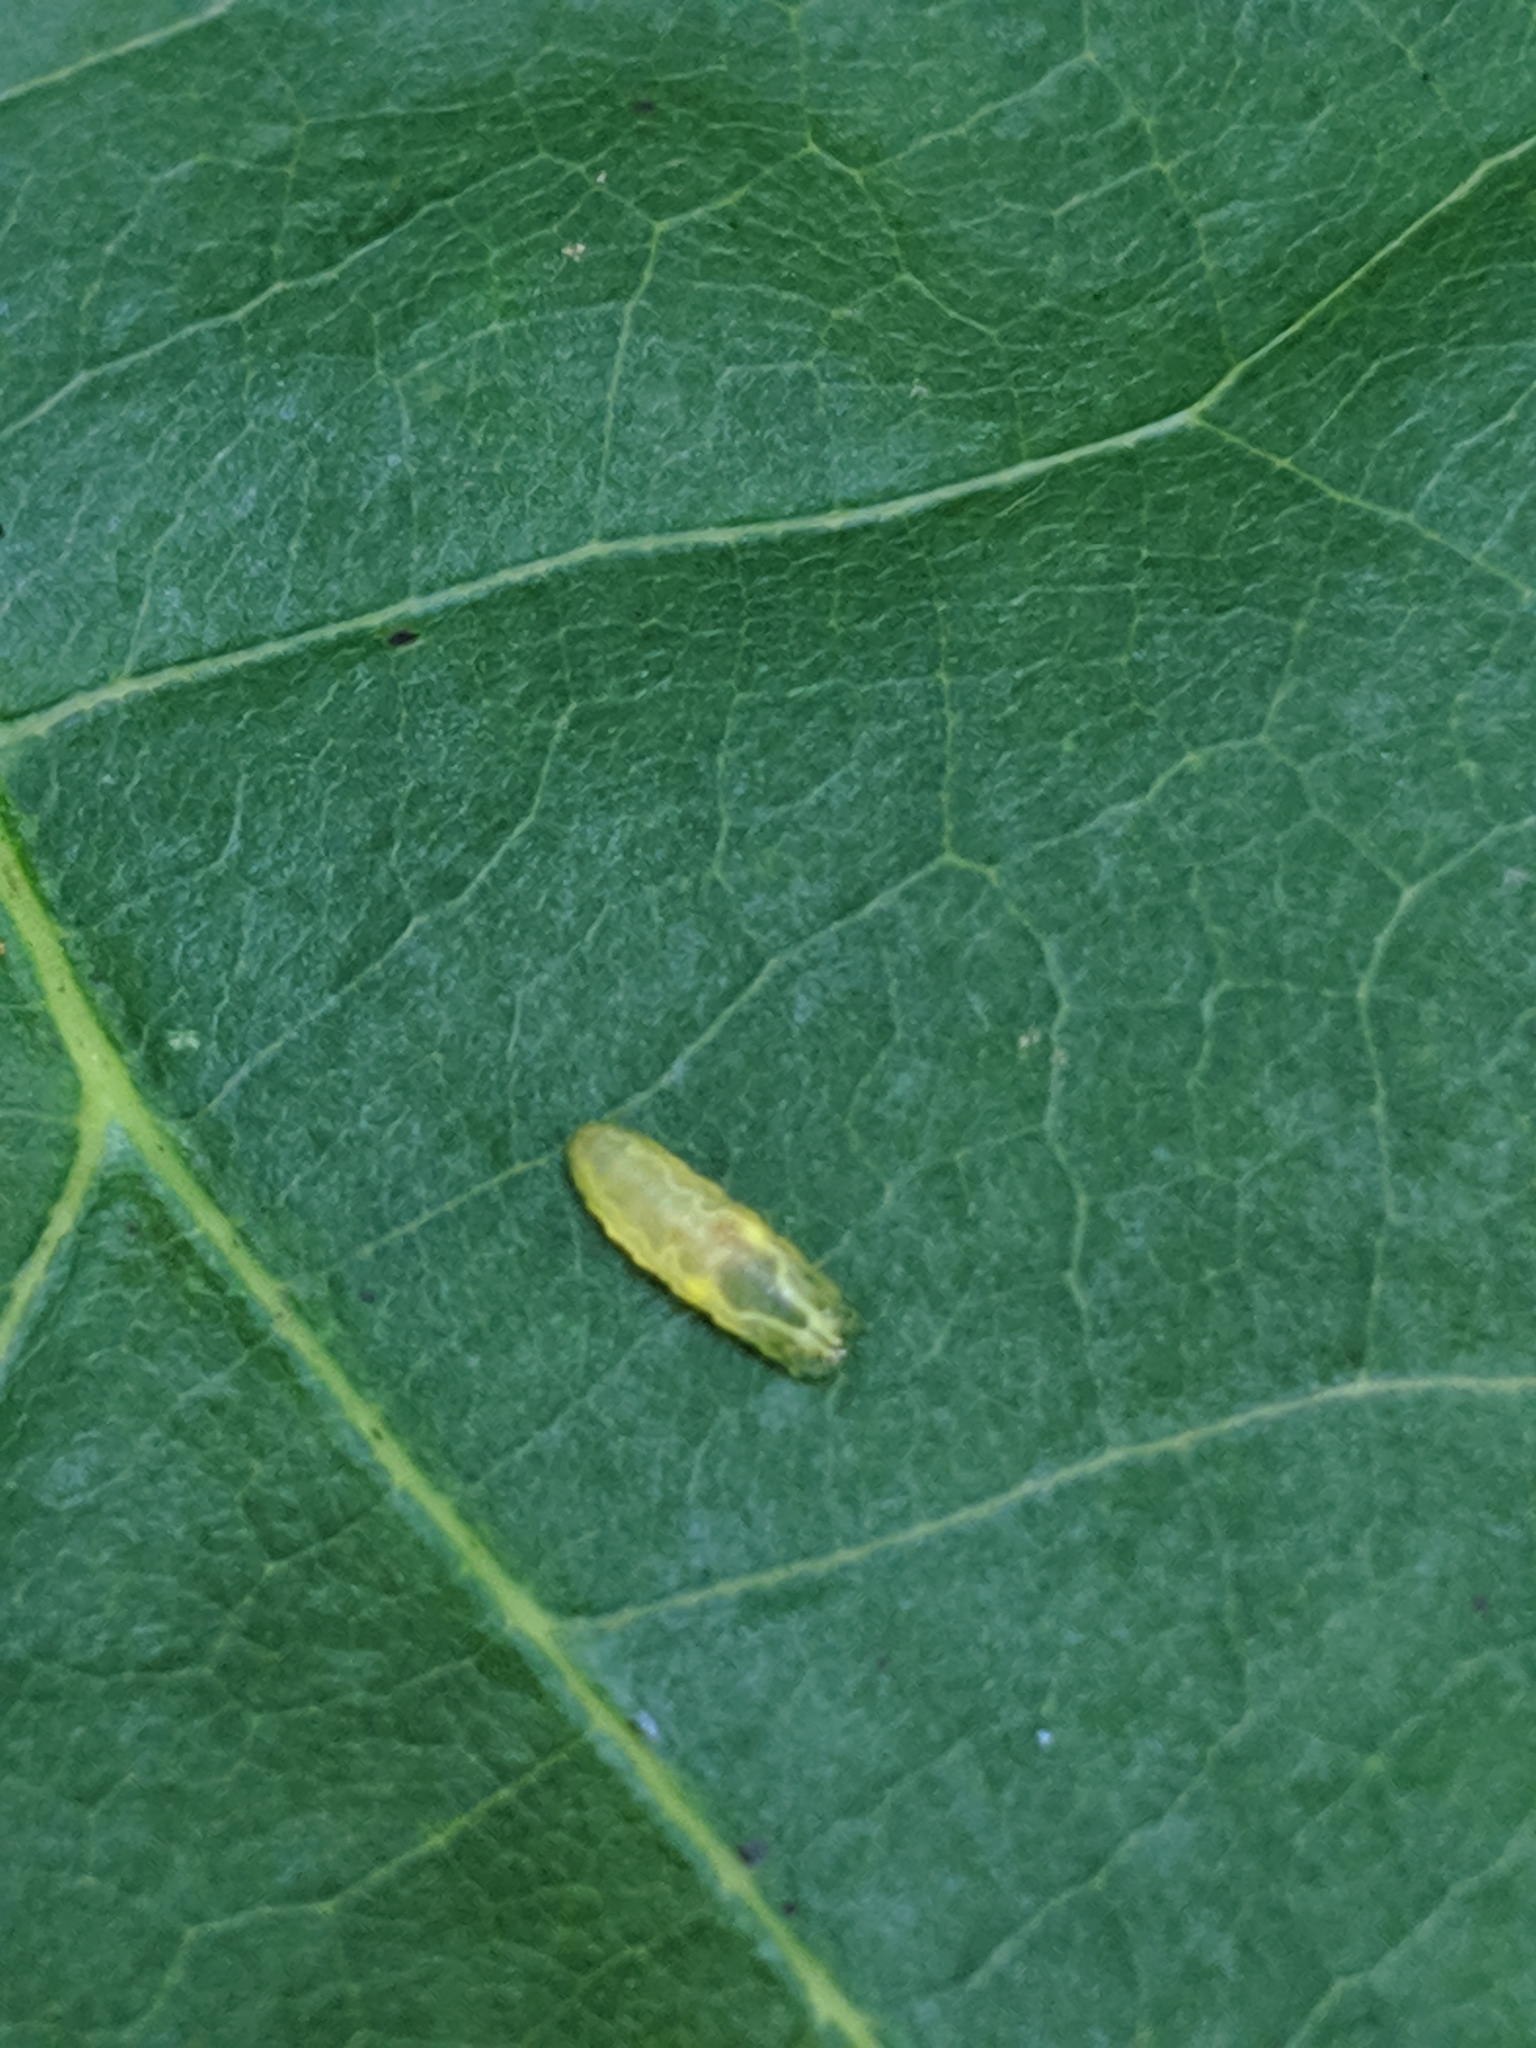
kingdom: Animalia
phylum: Arthropoda
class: Insecta
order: Diptera
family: Syrphidae
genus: Toxomerus
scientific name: Toxomerus
